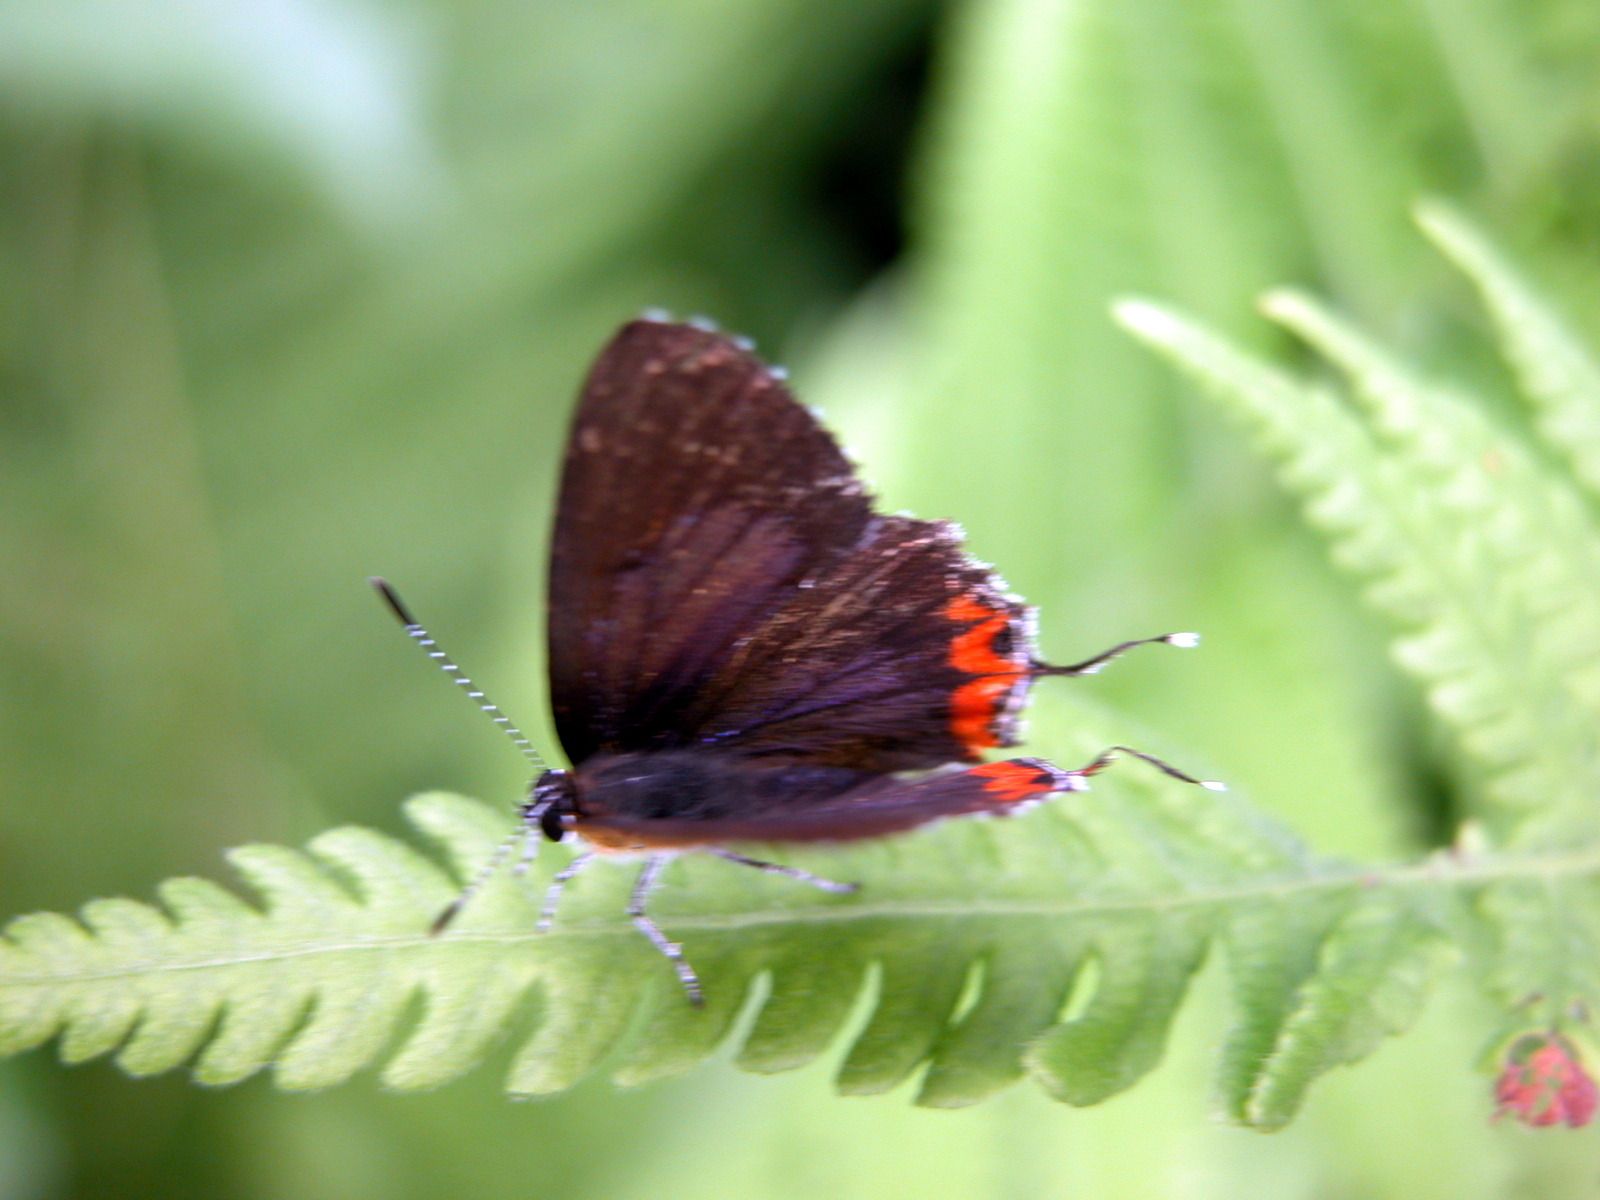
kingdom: Animalia
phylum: Arthropoda
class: Insecta
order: Lepidoptera
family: Lycaenidae
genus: Heliophorus
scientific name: Heliophorus epicles
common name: Purple sapphire
